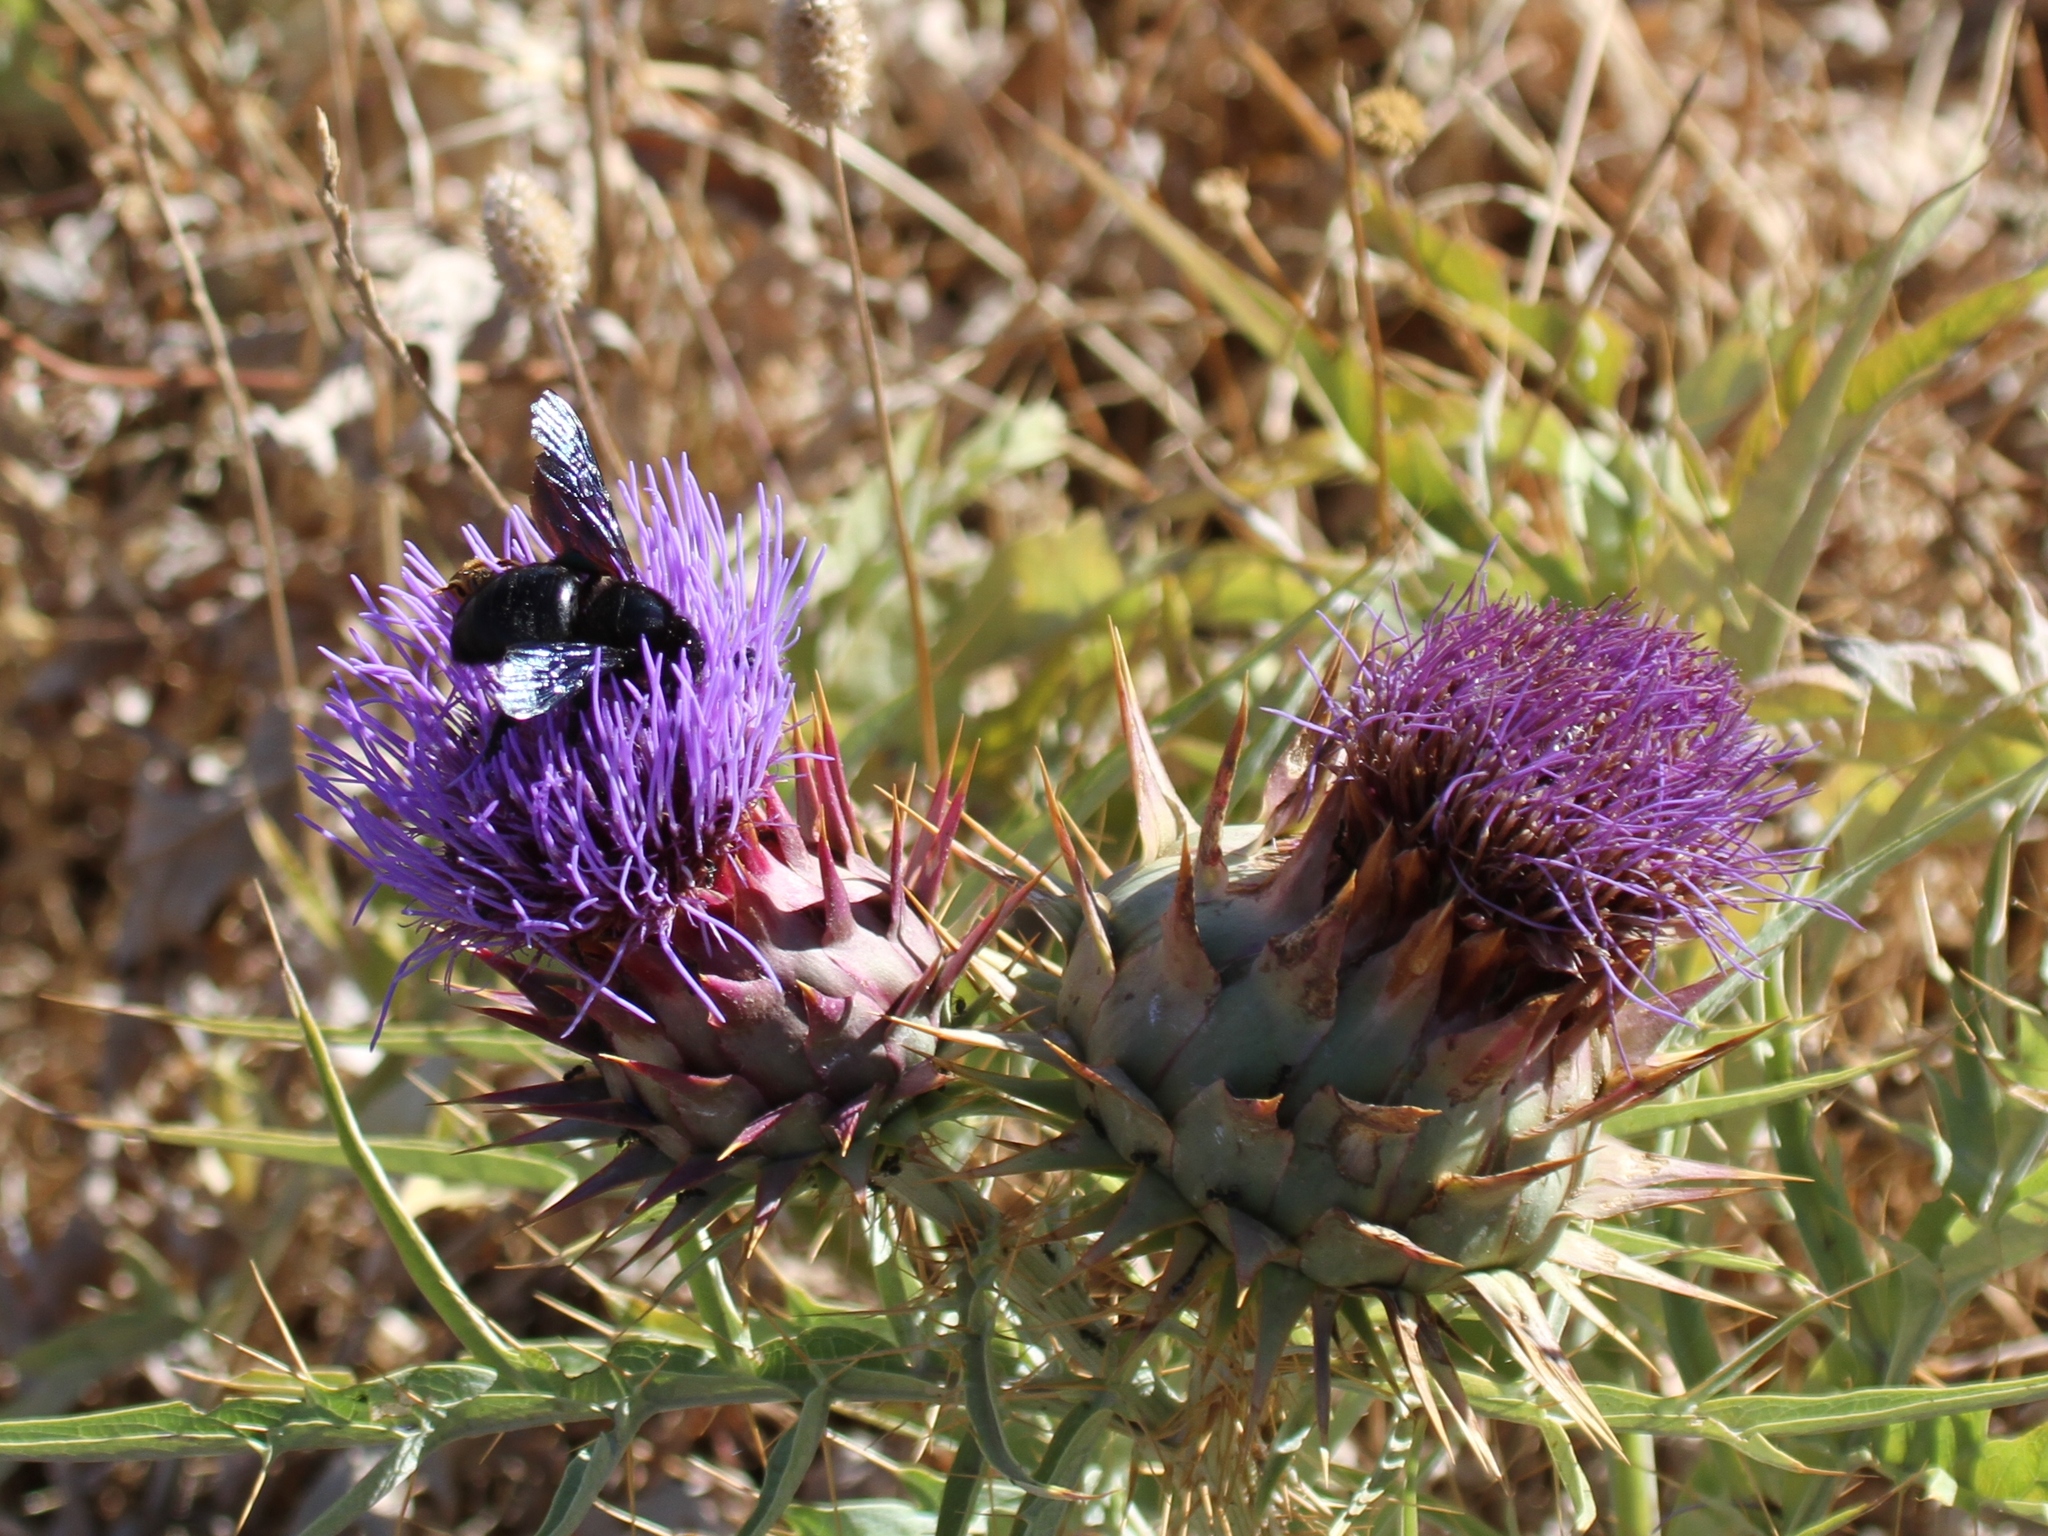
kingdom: Plantae
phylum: Tracheophyta
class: Magnoliopsida
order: Asterales
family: Asteraceae
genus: Cynara
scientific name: Cynara cardunculus
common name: Globe artichoke
